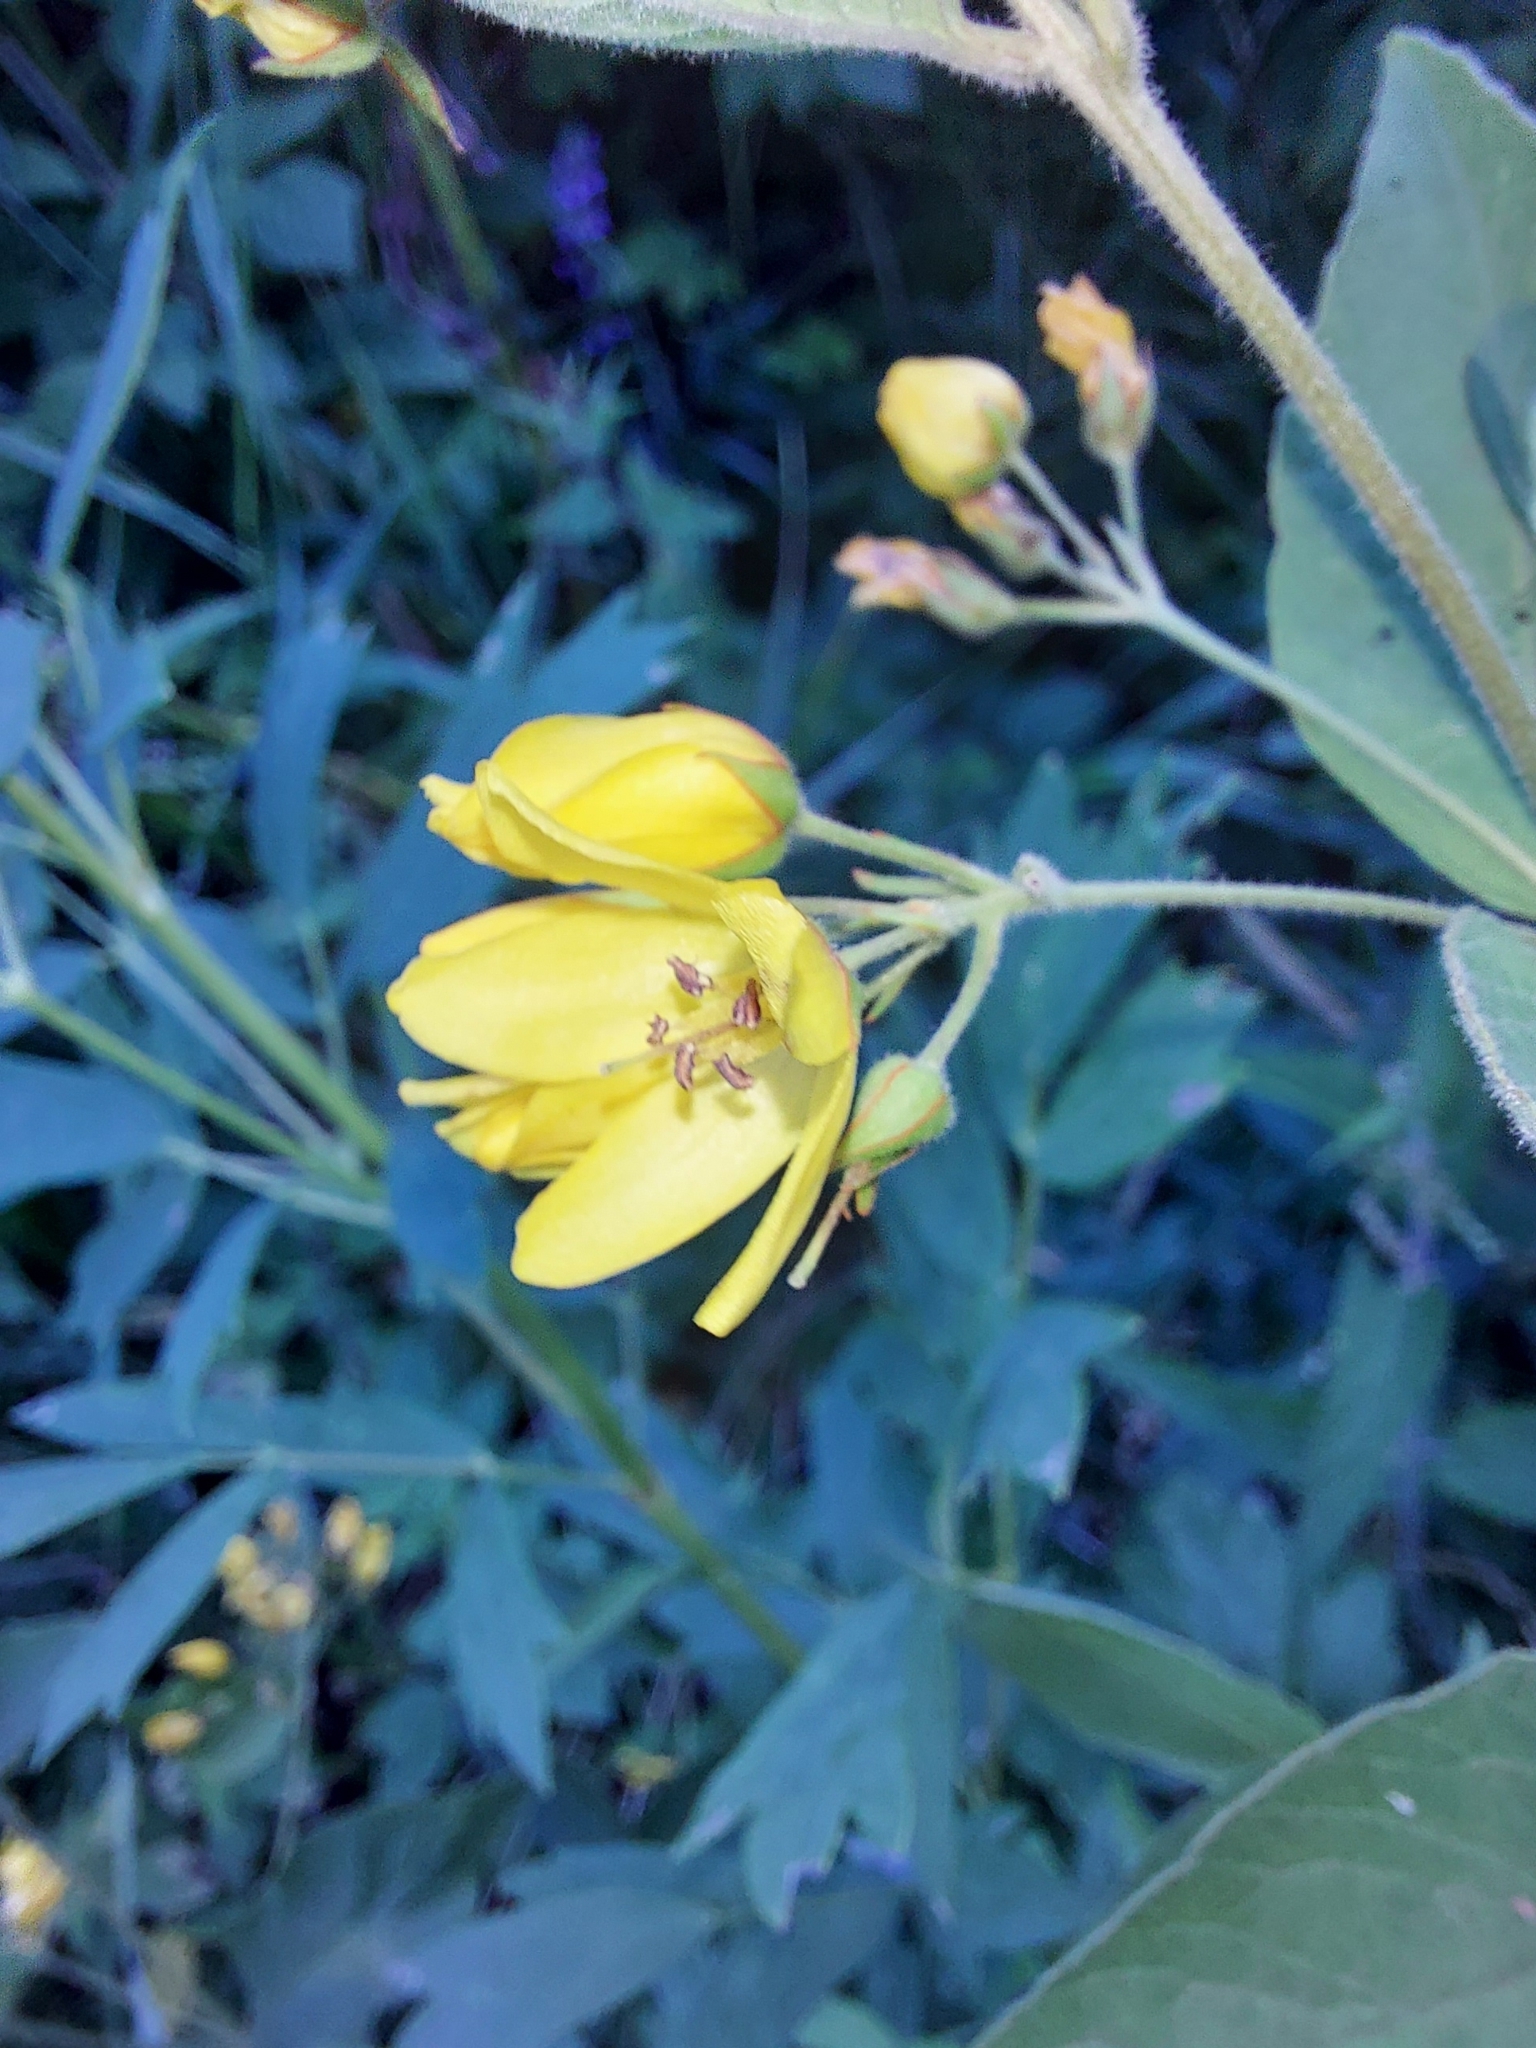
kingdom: Plantae
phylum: Tracheophyta
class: Magnoliopsida
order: Ericales
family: Primulaceae
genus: Lysimachia
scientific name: Lysimachia vulgaris
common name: Yellow loosestrife
